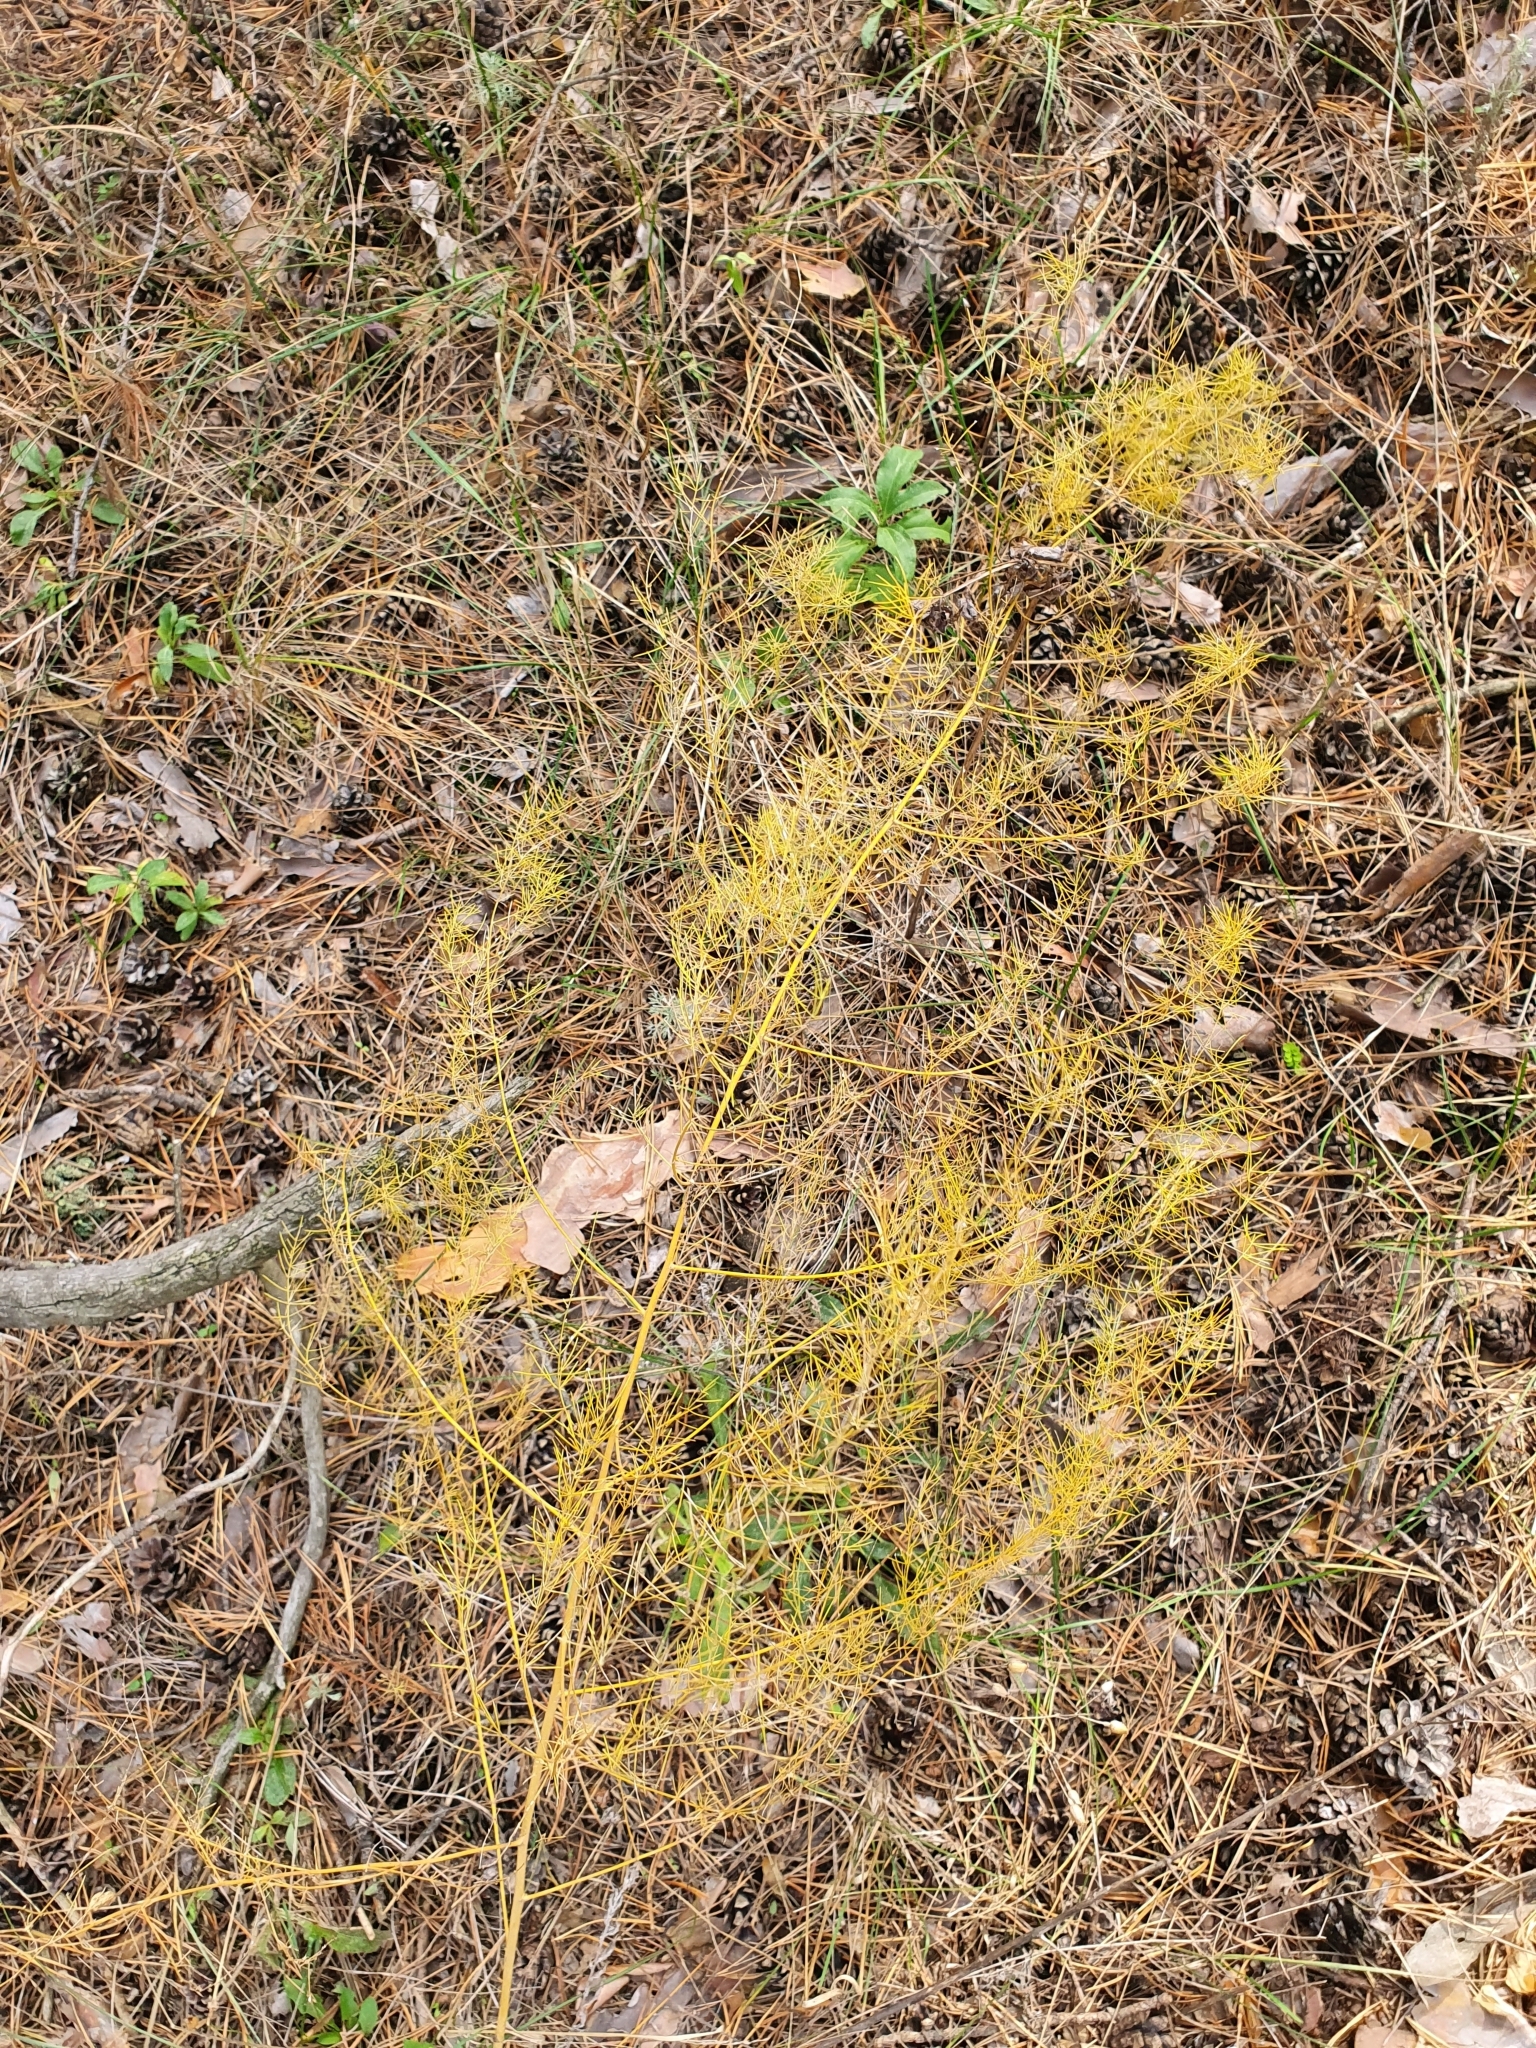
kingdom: Plantae
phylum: Tracheophyta
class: Liliopsida
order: Asparagales
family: Asparagaceae
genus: Asparagus
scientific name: Asparagus officinalis
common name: Garden asparagus
